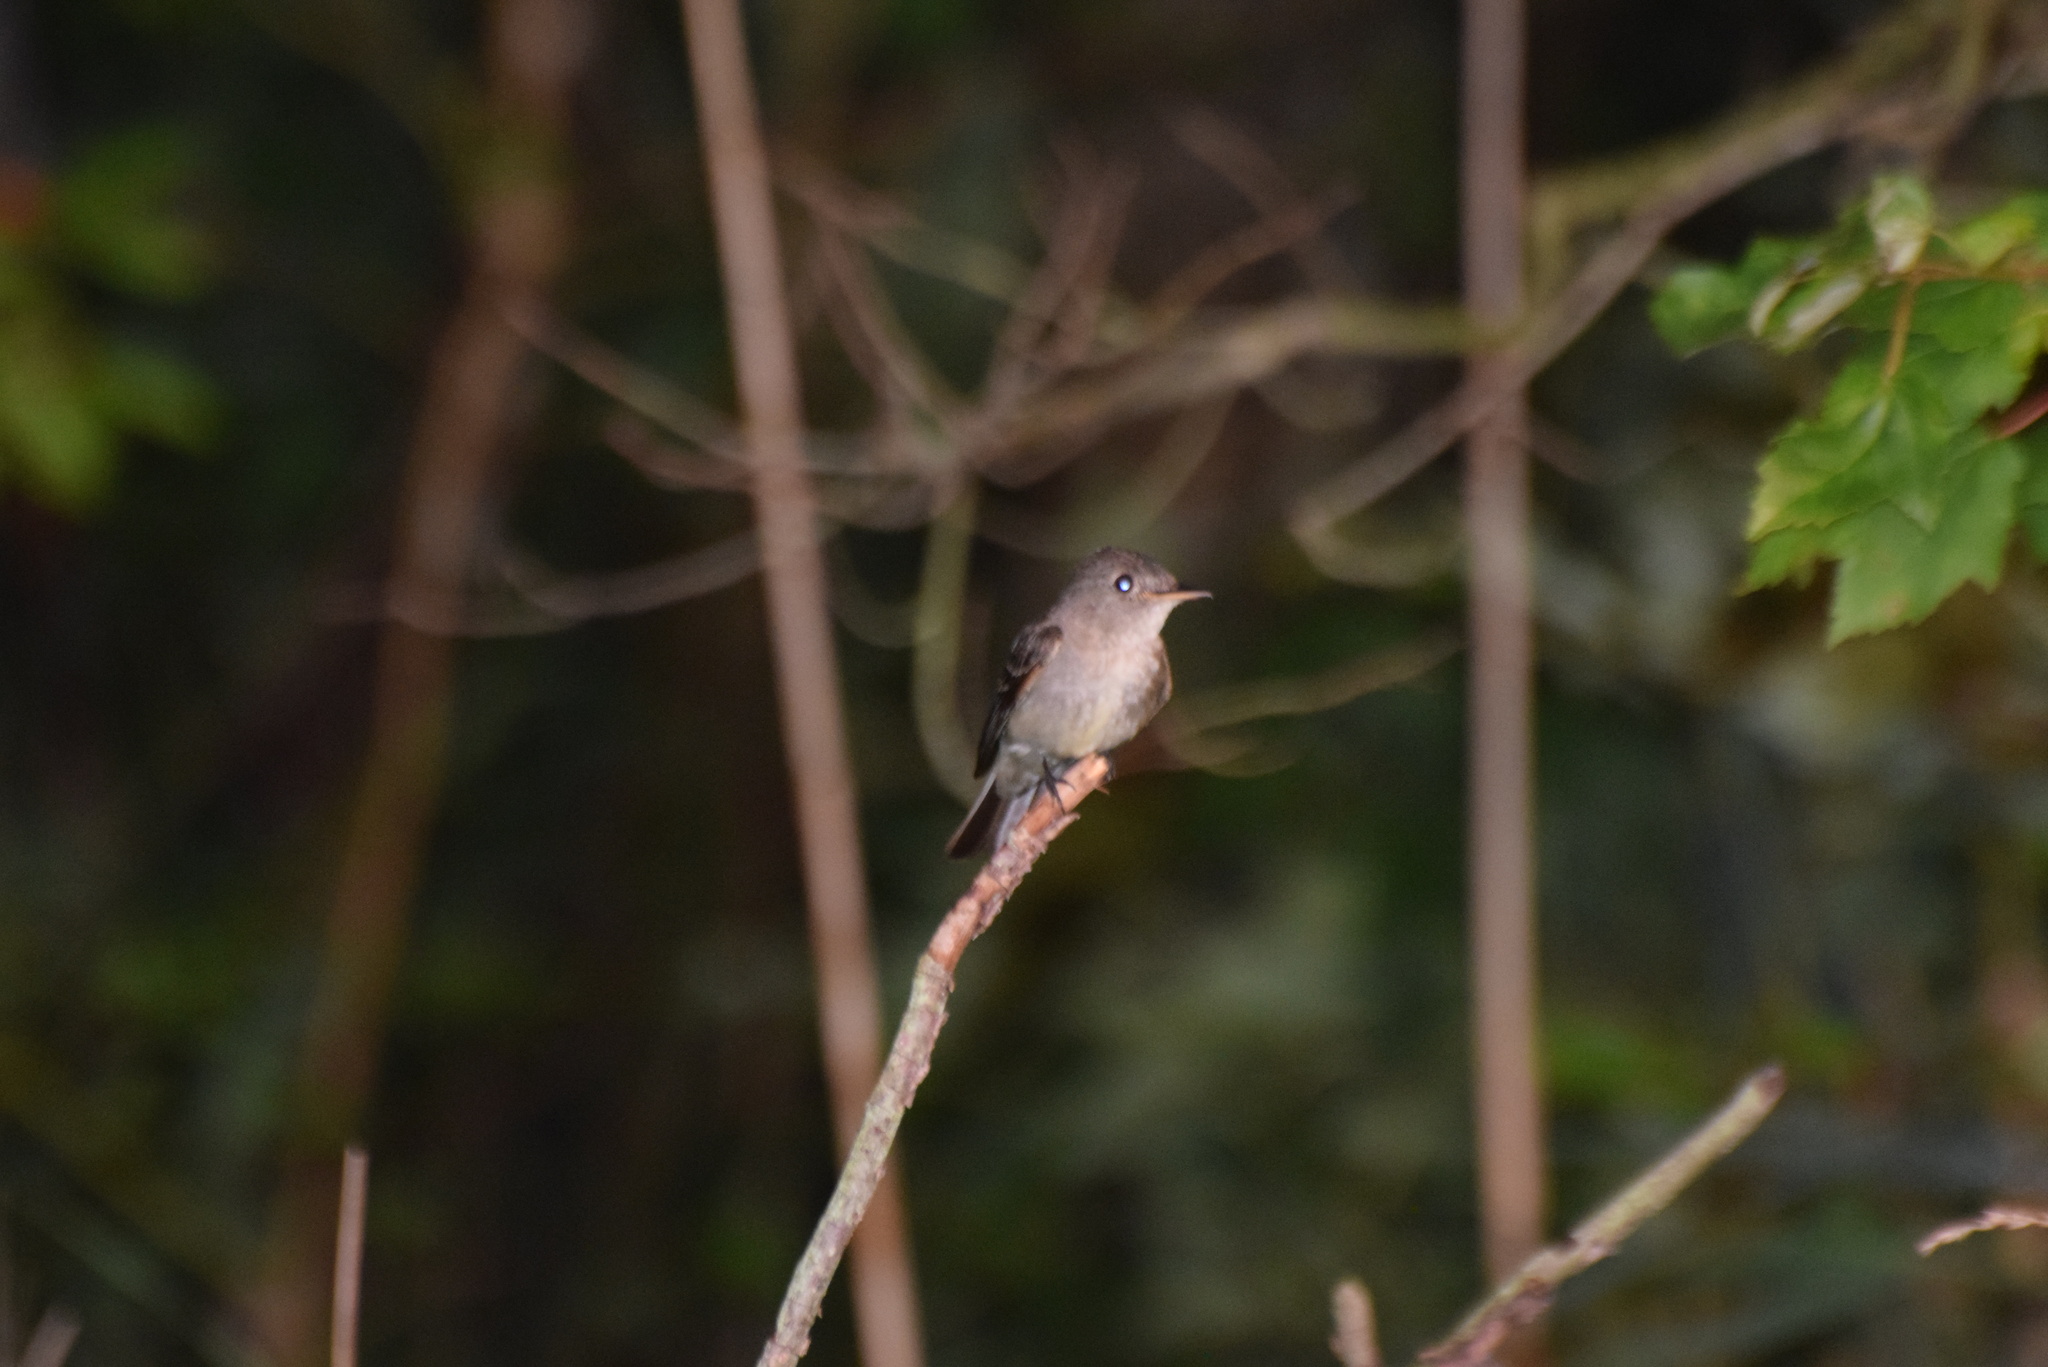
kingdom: Animalia
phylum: Chordata
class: Aves
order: Passeriformes
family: Tyrannidae
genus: Contopus
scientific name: Contopus virens
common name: Eastern wood-pewee
